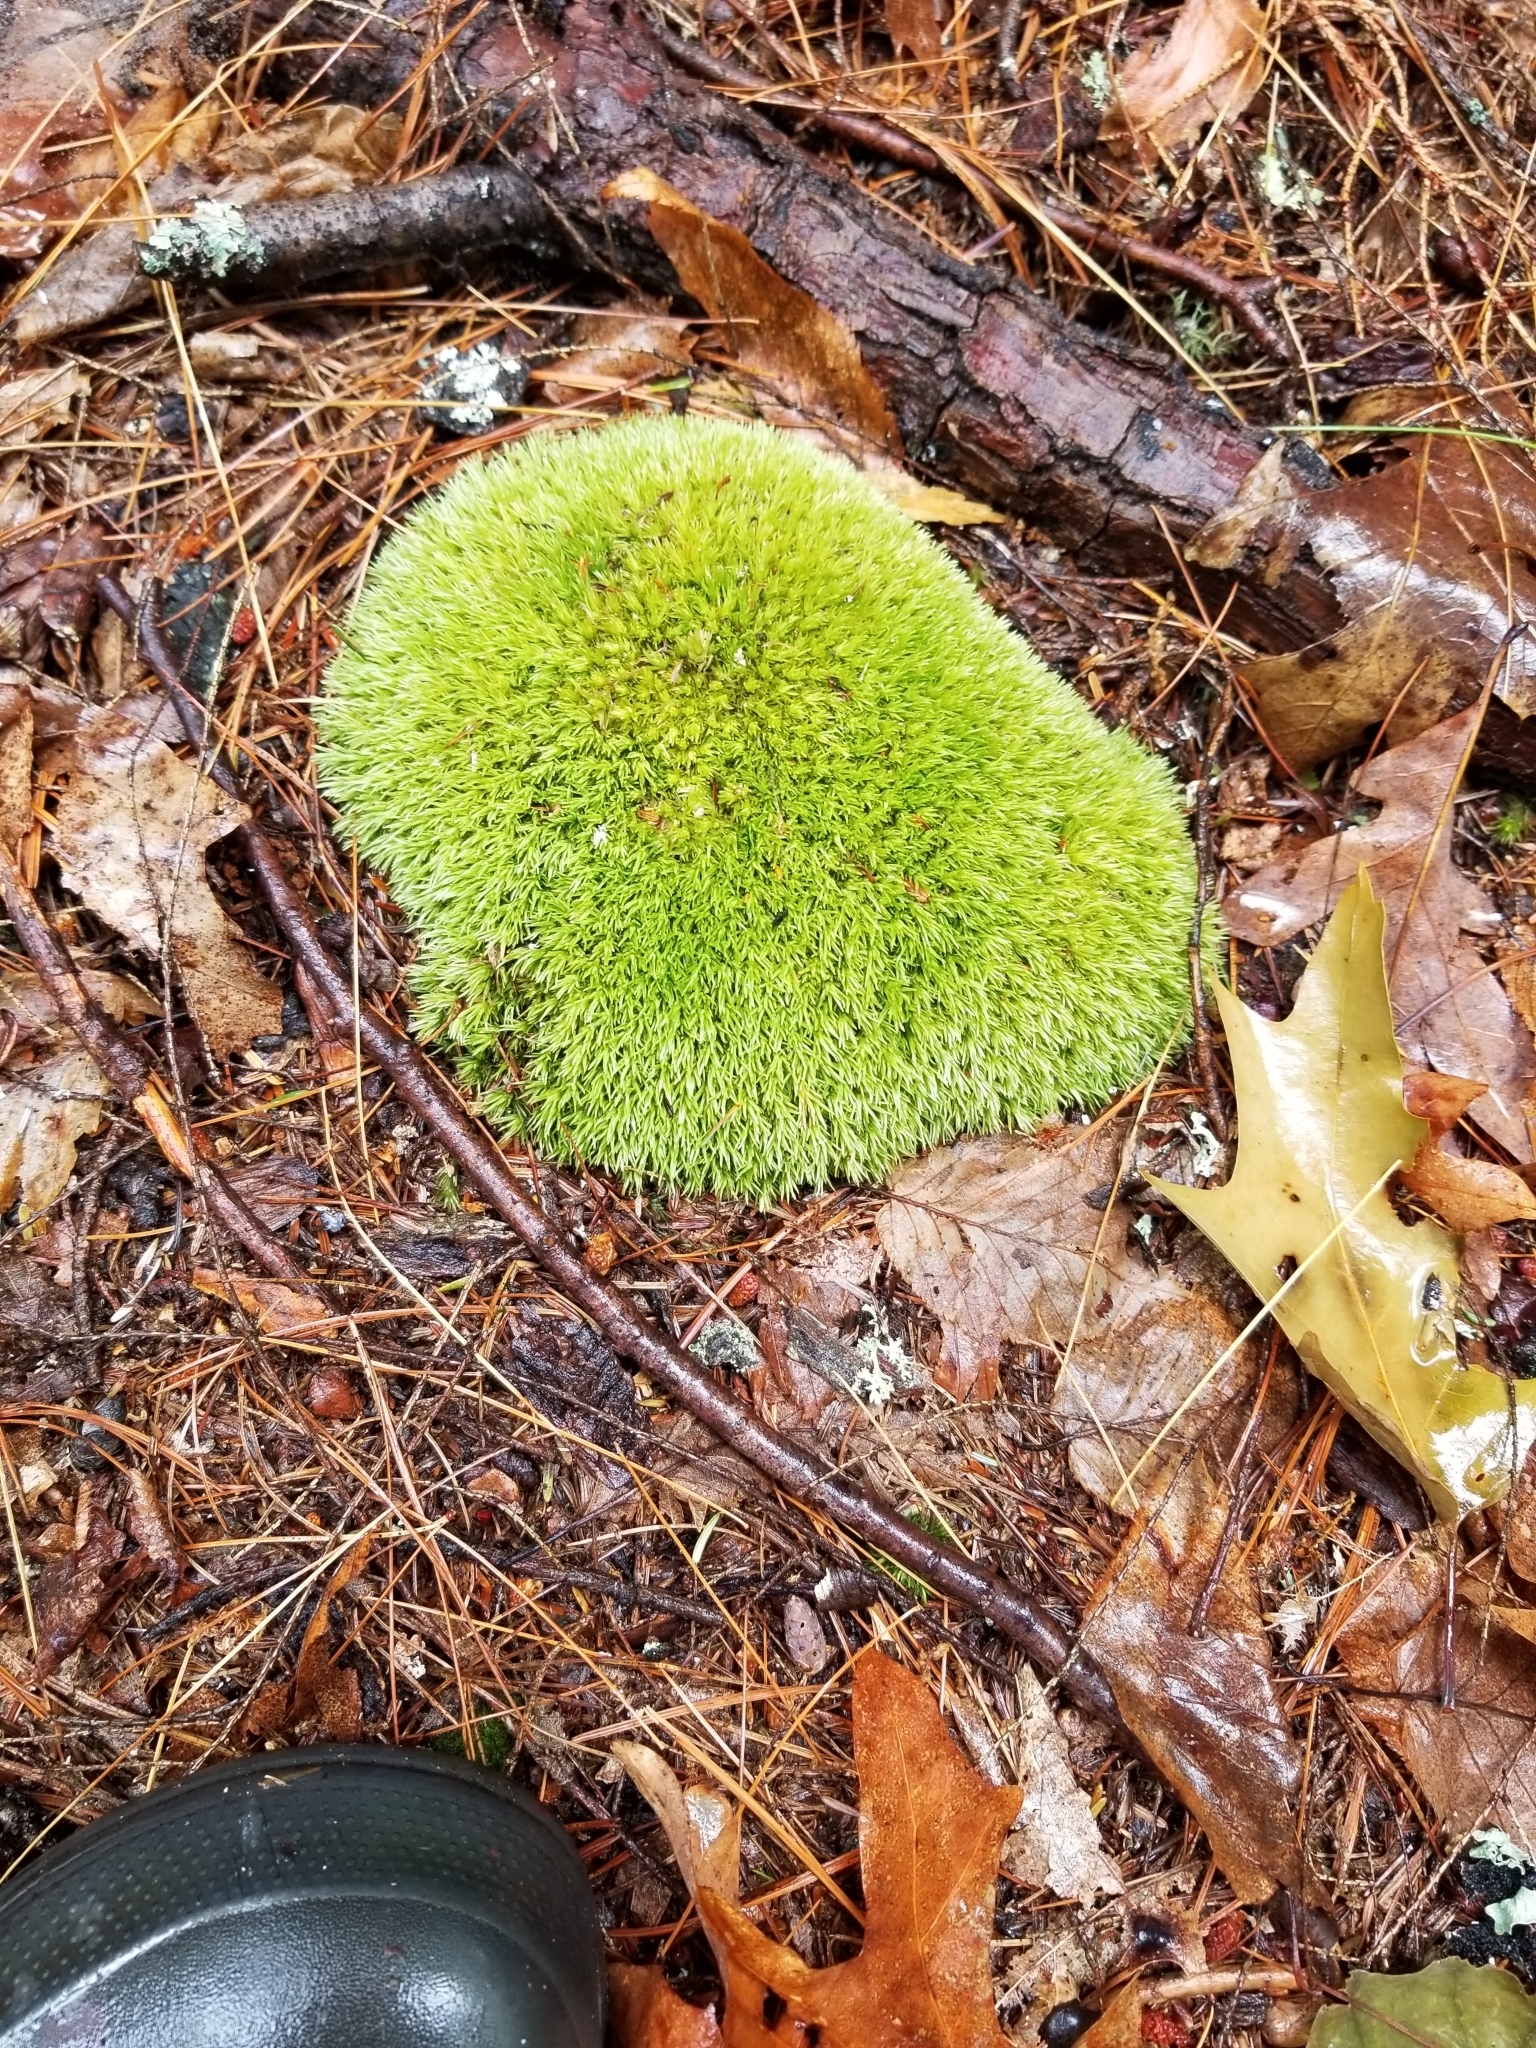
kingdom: Plantae
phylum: Bryophyta
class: Bryopsida
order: Dicranales
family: Leucobryaceae
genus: Leucobryum
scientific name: Leucobryum glaucum
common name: Large white-moss
